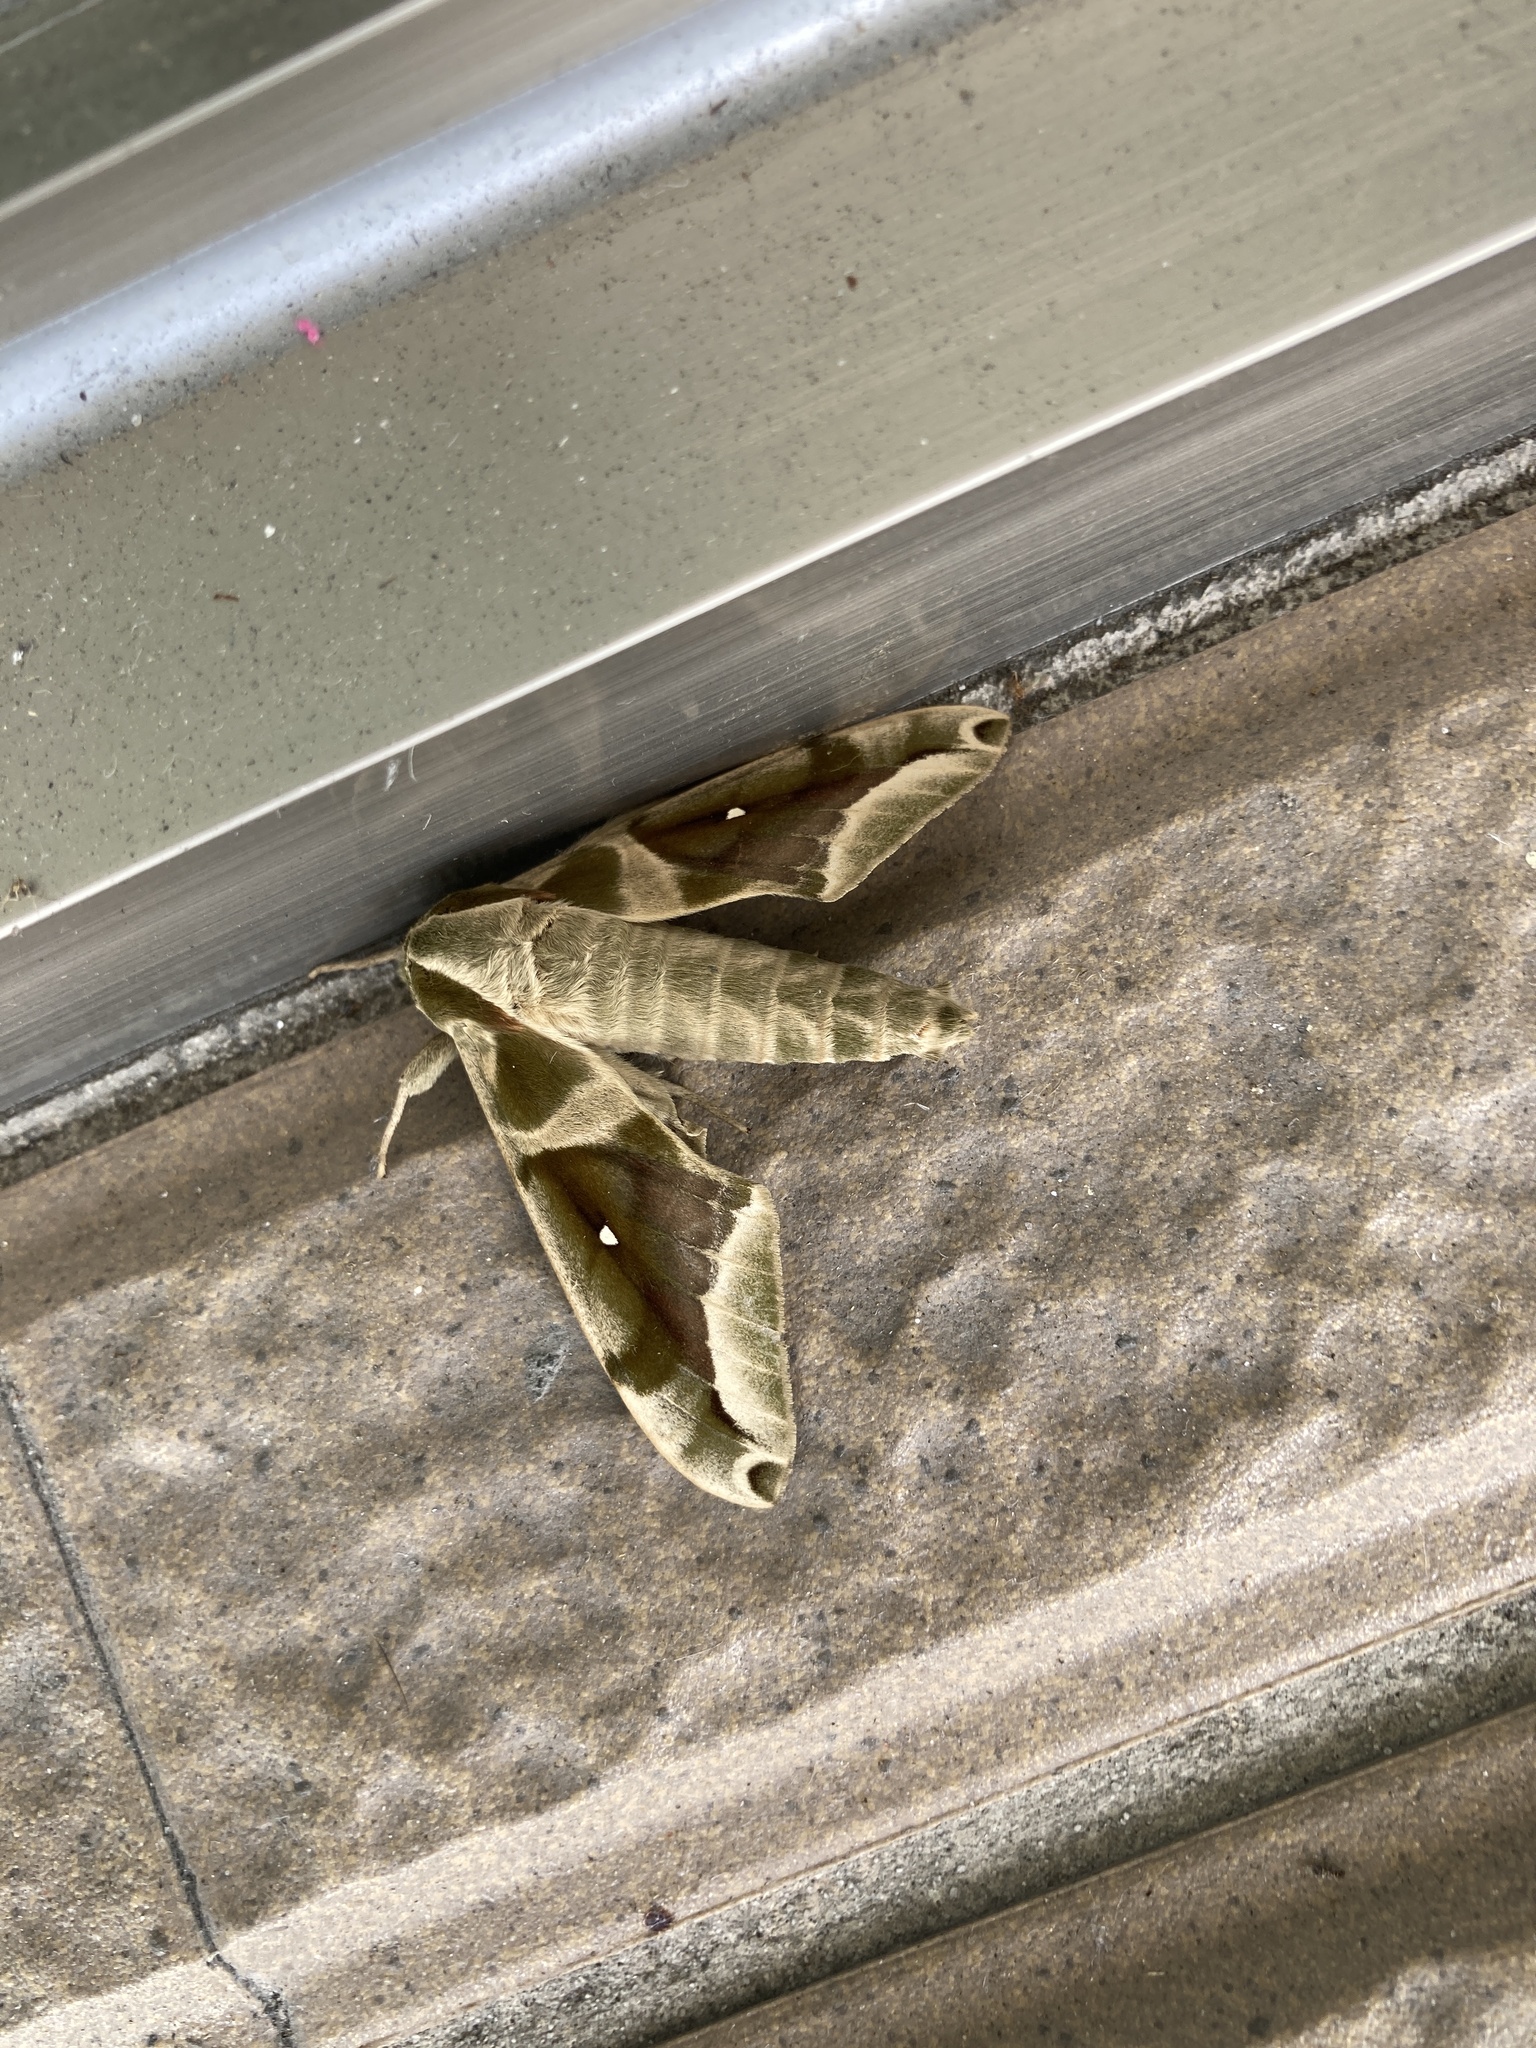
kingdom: Animalia
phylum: Arthropoda
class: Insecta
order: Lepidoptera
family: Sphingidae
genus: Parum
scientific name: Parum colligata
